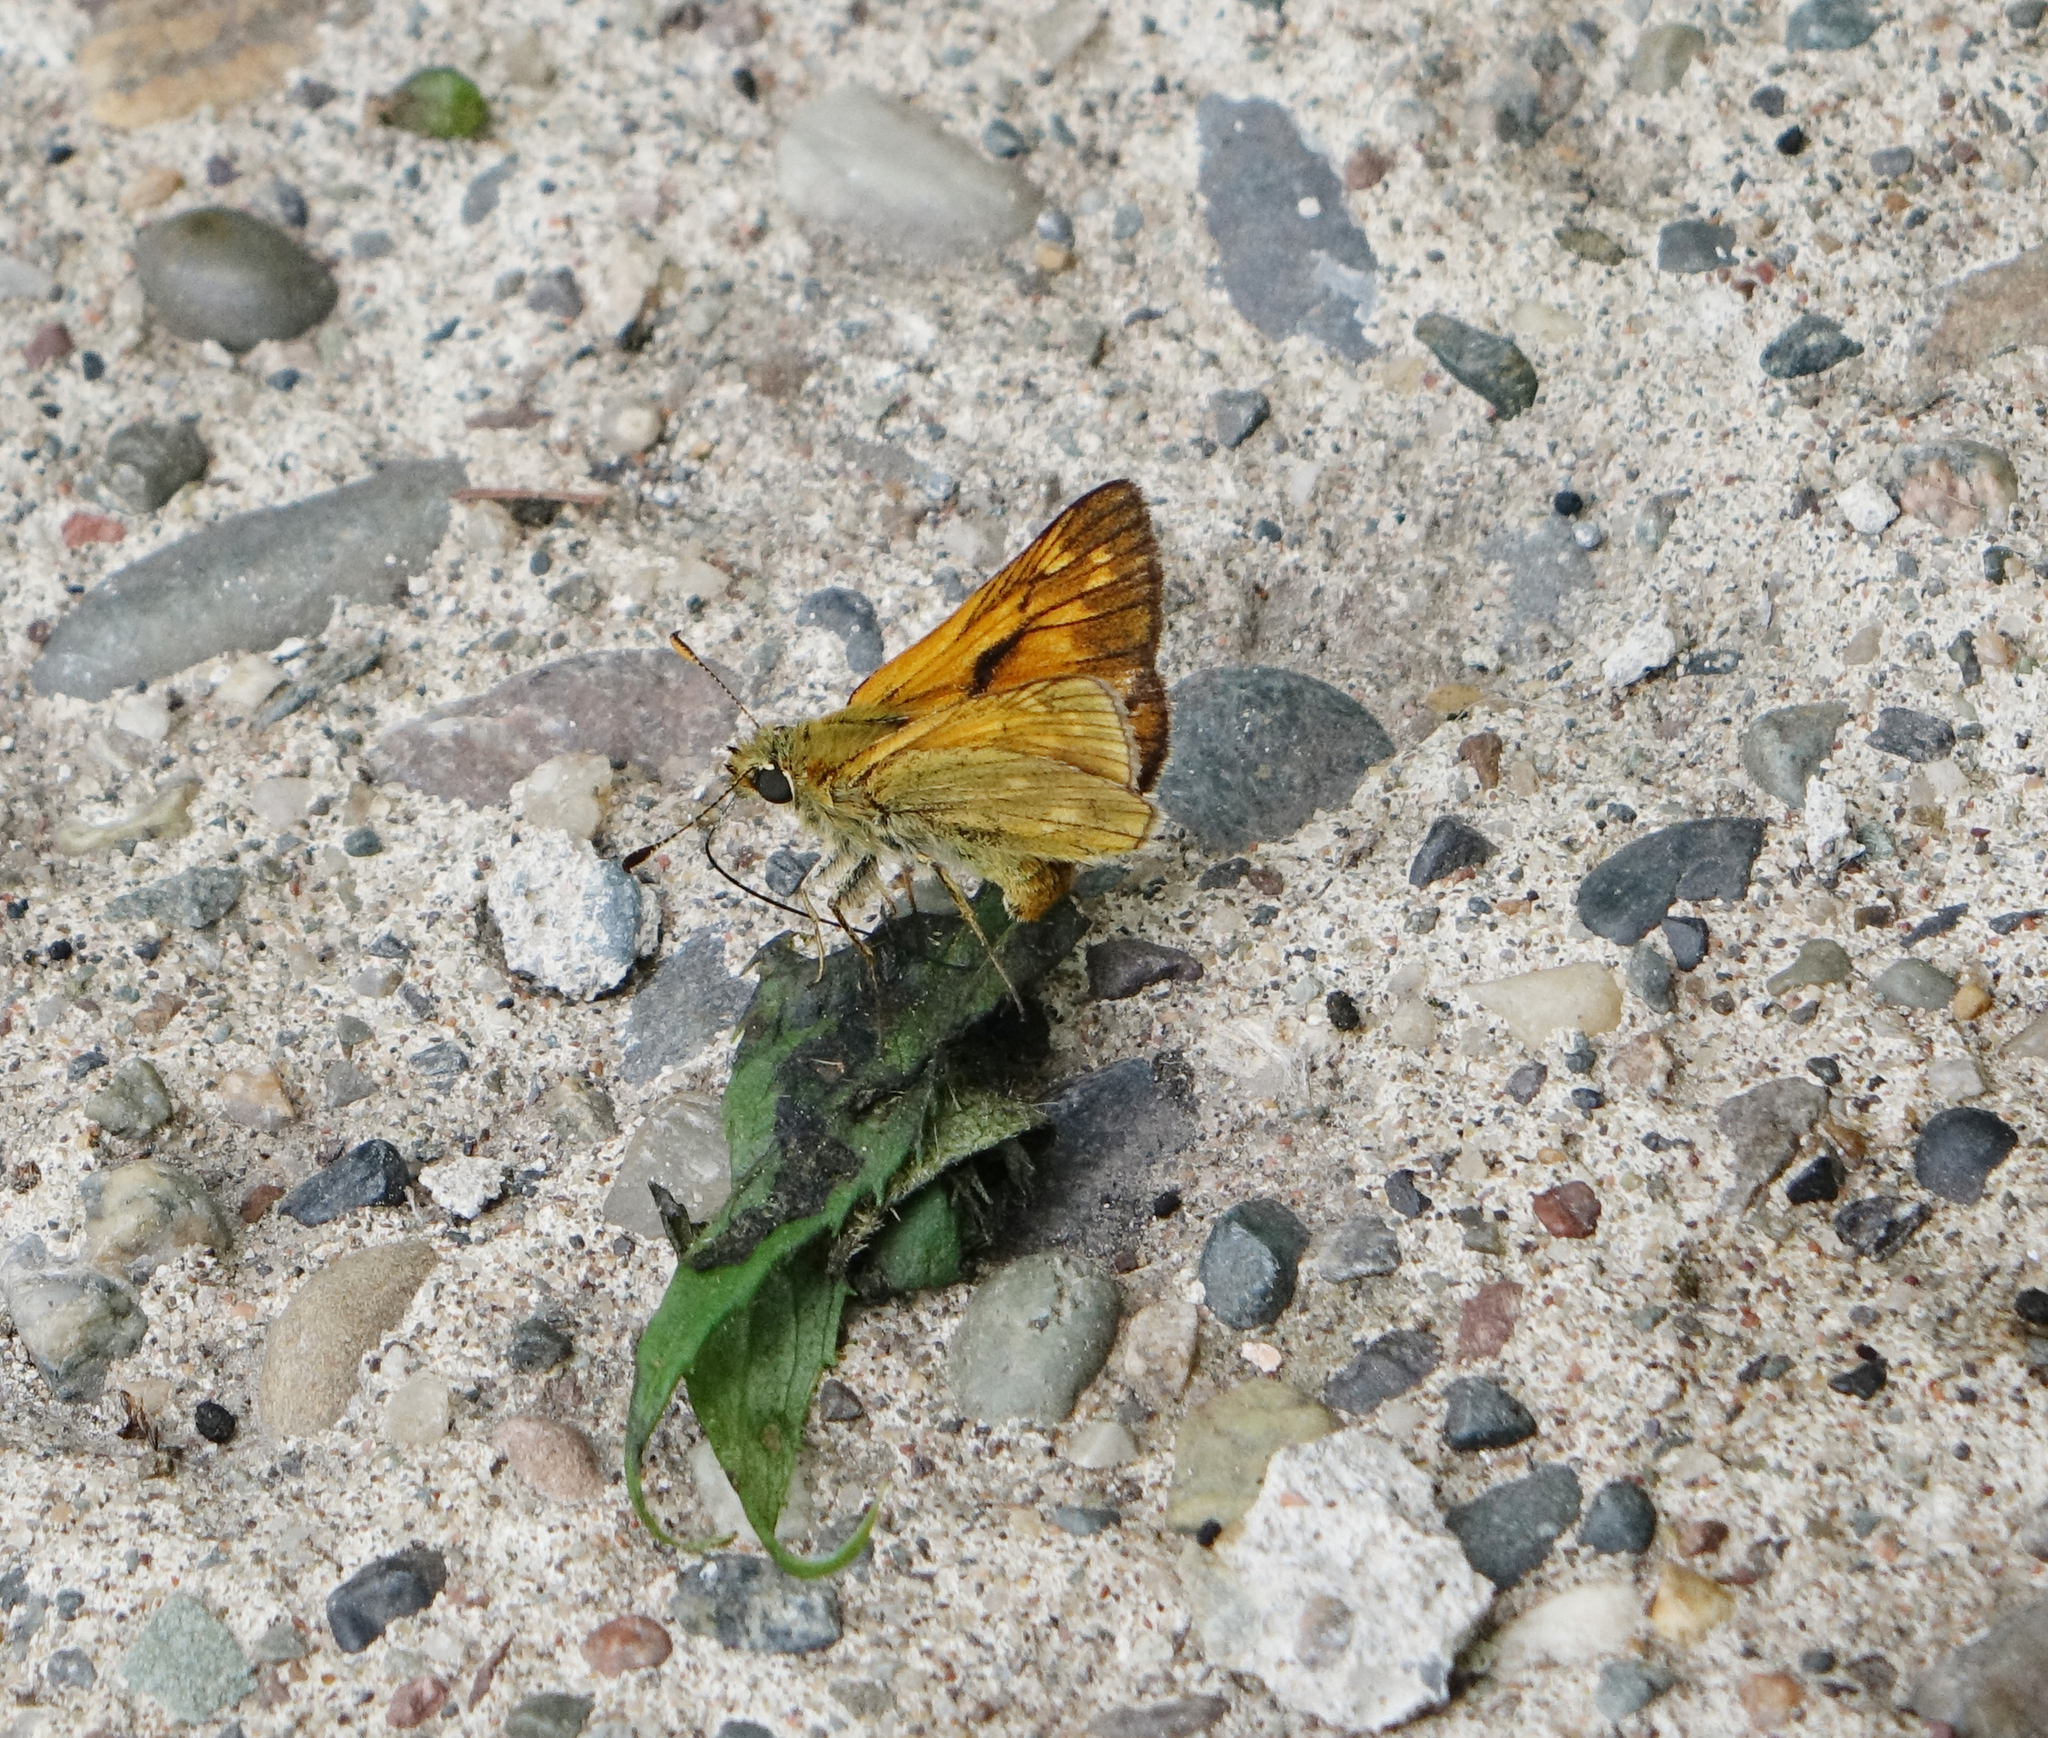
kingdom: Animalia
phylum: Arthropoda
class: Insecta
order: Lepidoptera
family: Hesperiidae
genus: Ochlodes
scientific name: Ochlodes venata
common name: Large skipper
